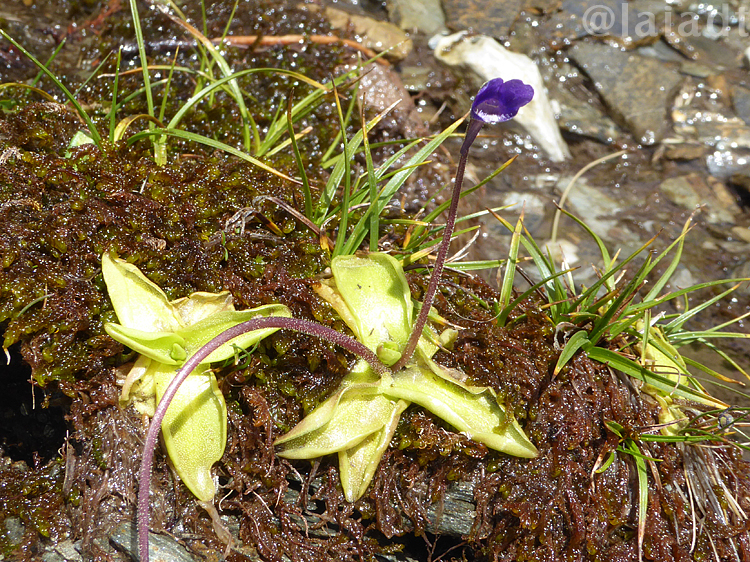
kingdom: Plantae
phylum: Tracheophyta
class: Magnoliopsida
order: Lamiales
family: Lentibulariaceae
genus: Pinguicula
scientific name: Pinguicula vulgaris
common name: Common butterwort
